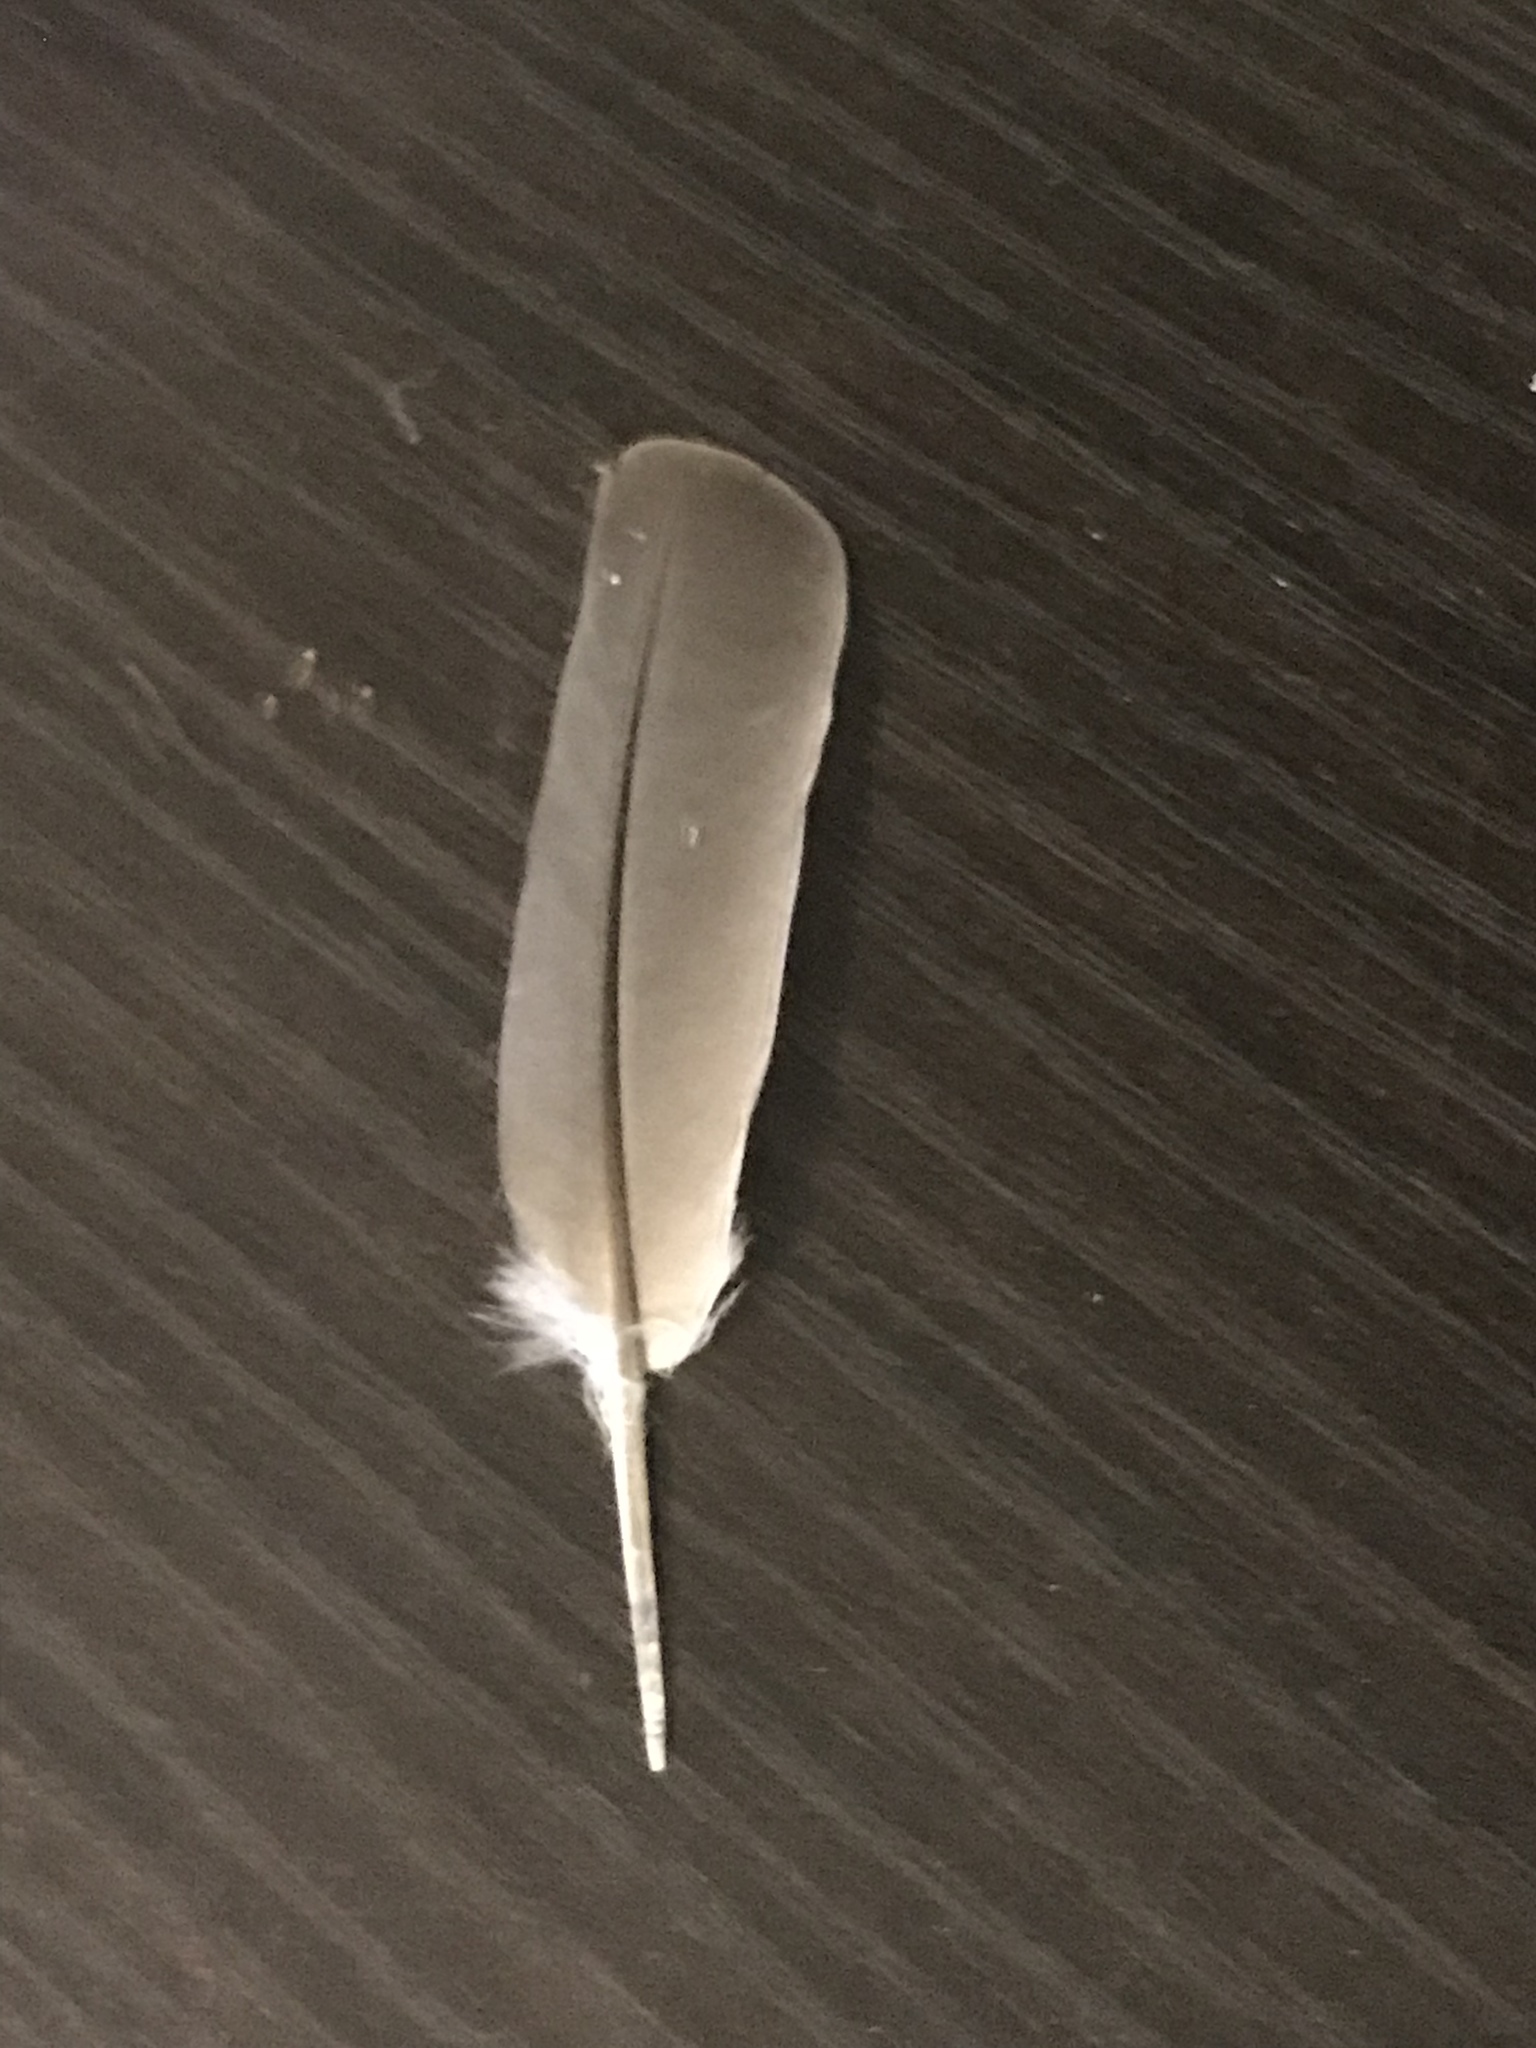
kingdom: Animalia
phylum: Chordata
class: Aves
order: Columbiformes
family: Columbidae
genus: Zenaida
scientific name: Zenaida macroura
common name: Mourning dove
